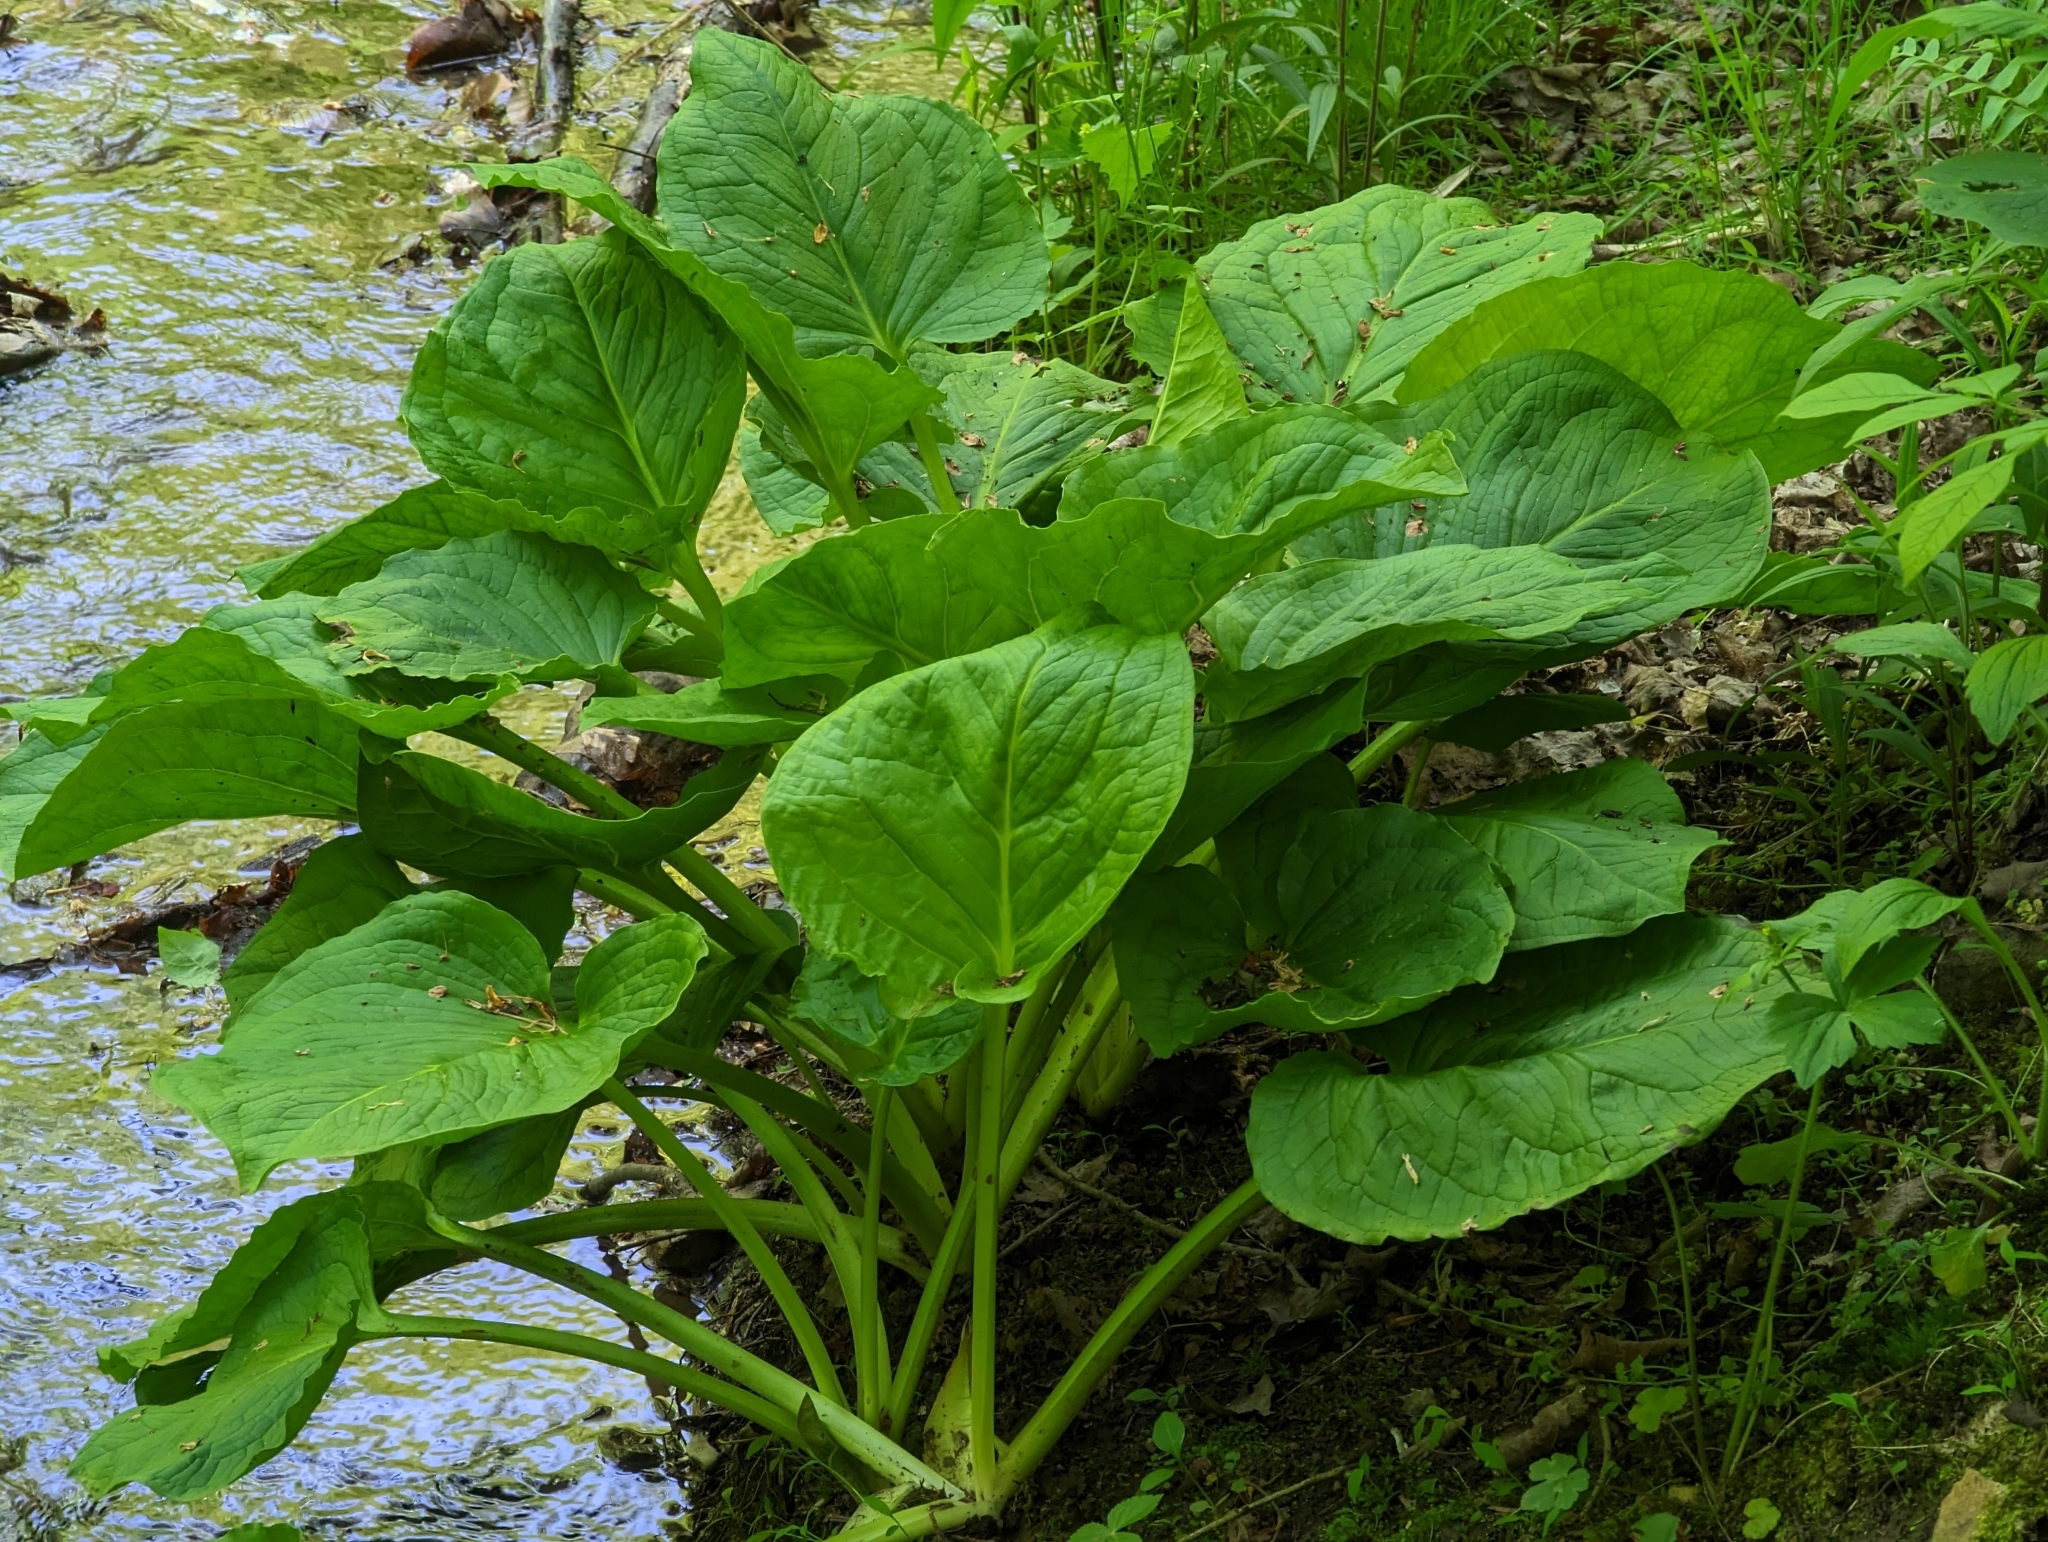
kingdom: Plantae
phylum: Tracheophyta
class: Liliopsida
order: Alismatales
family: Araceae
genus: Symplocarpus
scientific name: Symplocarpus foetidus
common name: Eastern skunk cabbage
